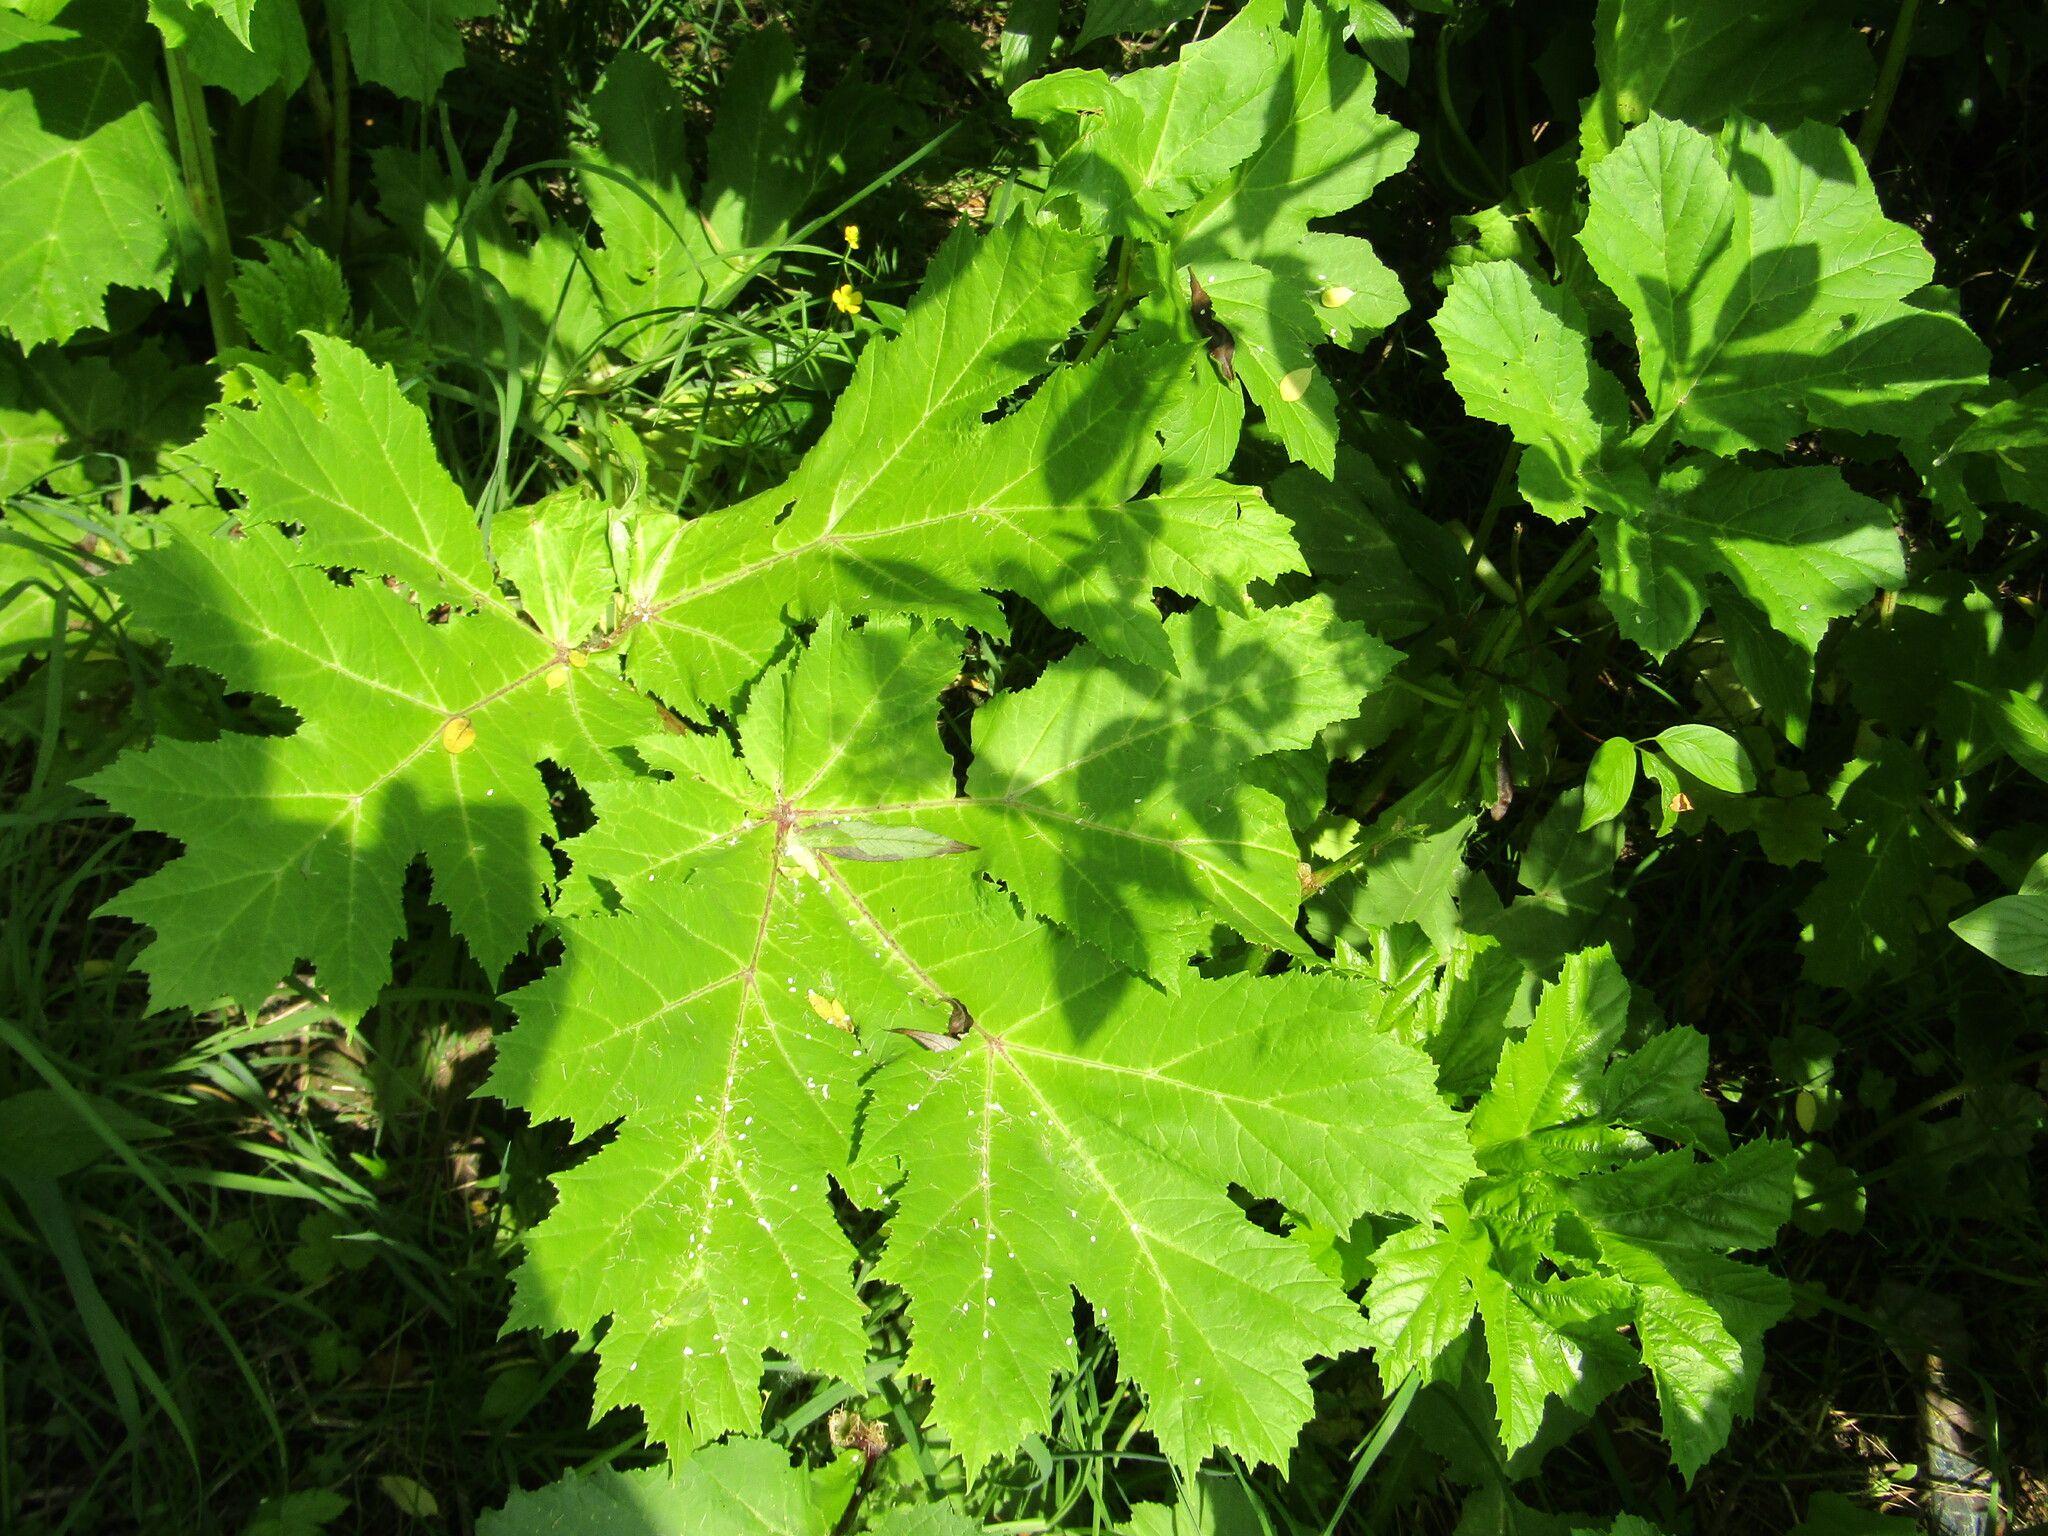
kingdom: Plantae
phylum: Tracheophyta
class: Magnoliopsida
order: Apiales
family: Apiaceae
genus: Heracleum
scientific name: Heracleum sosnowskyi
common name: Sosnowsky's hogweed
